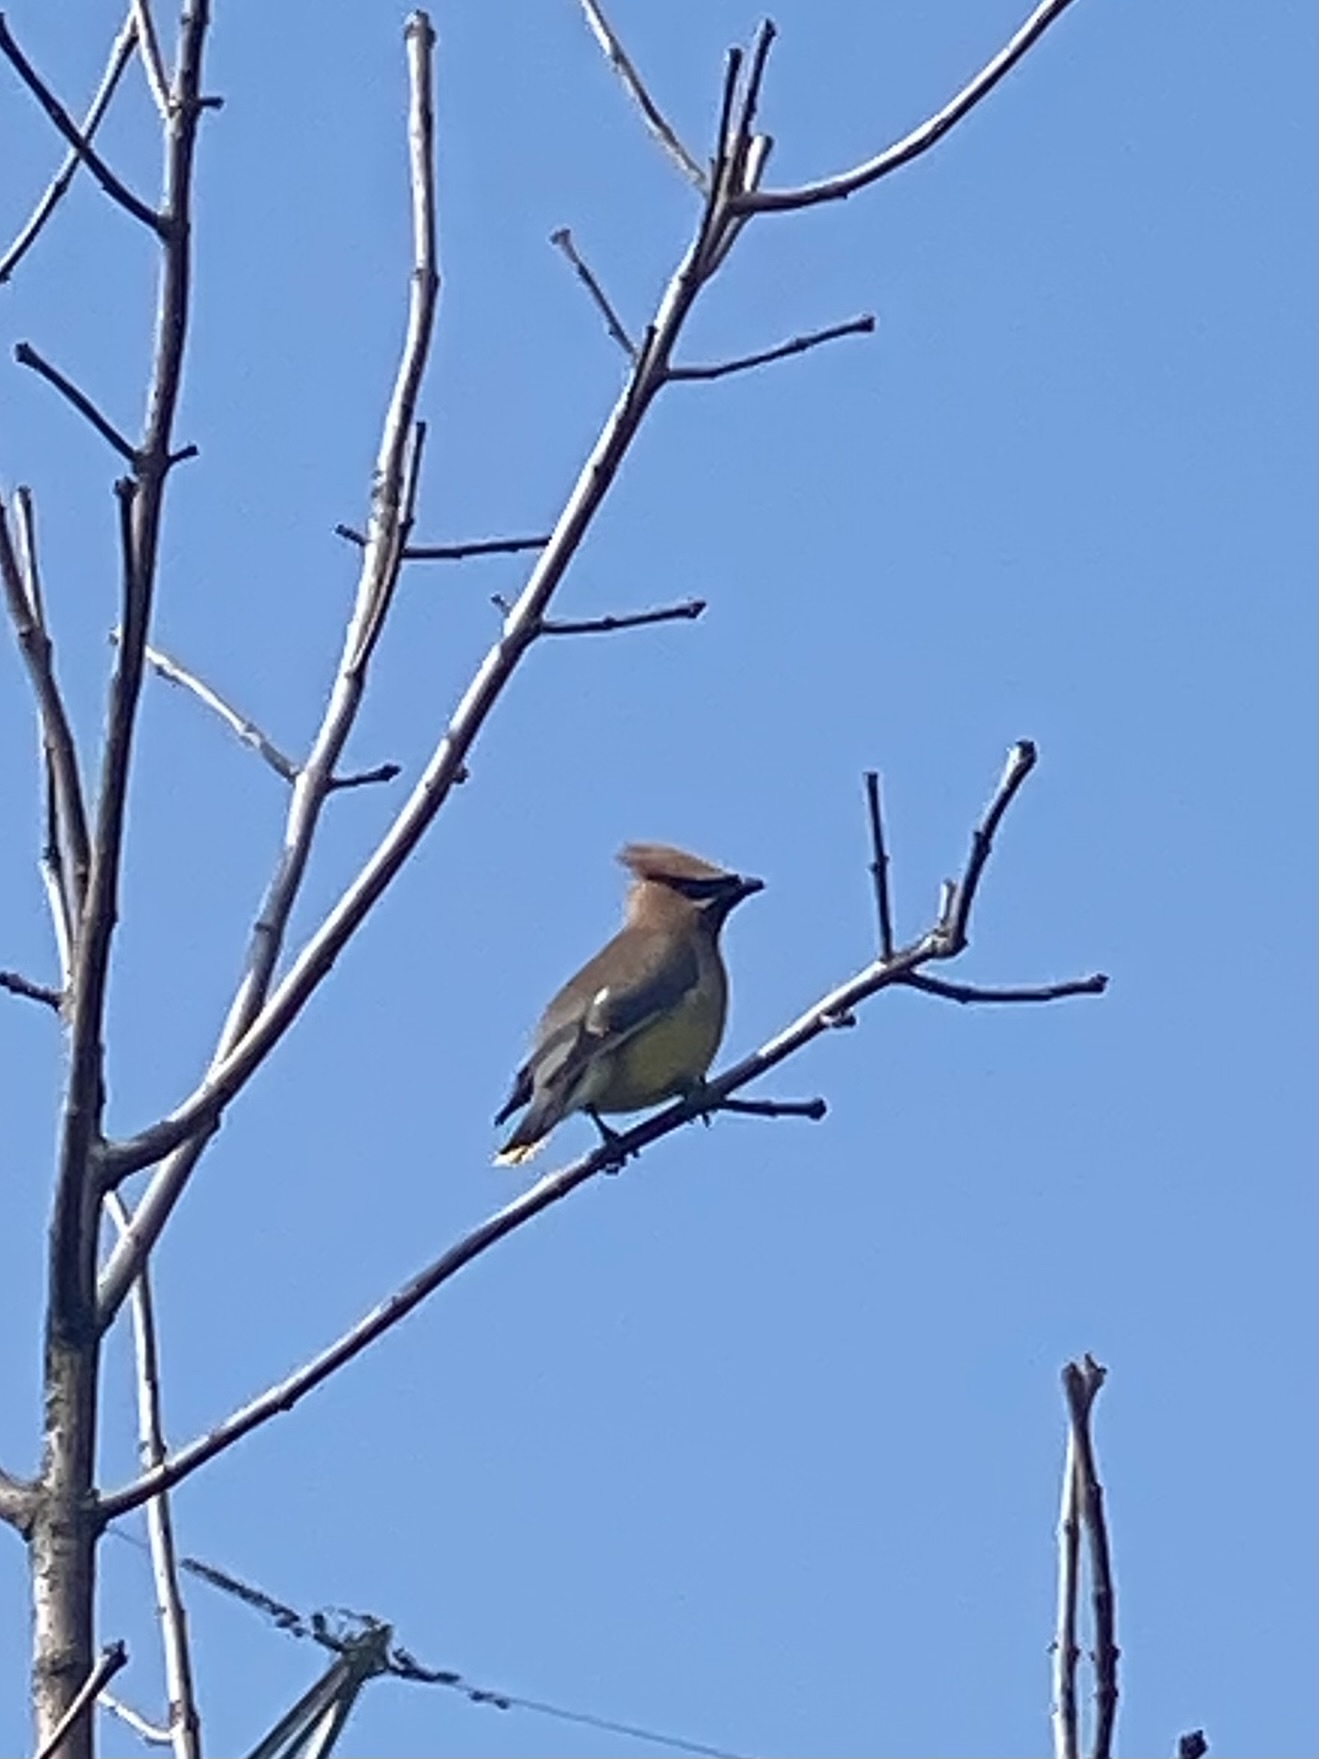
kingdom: Animalia
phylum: Chordata
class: Aves
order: Passeriformes
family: Bombycillidae
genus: Bombycilla
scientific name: Bombycilla cedrorum
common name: Cedar waxwing
